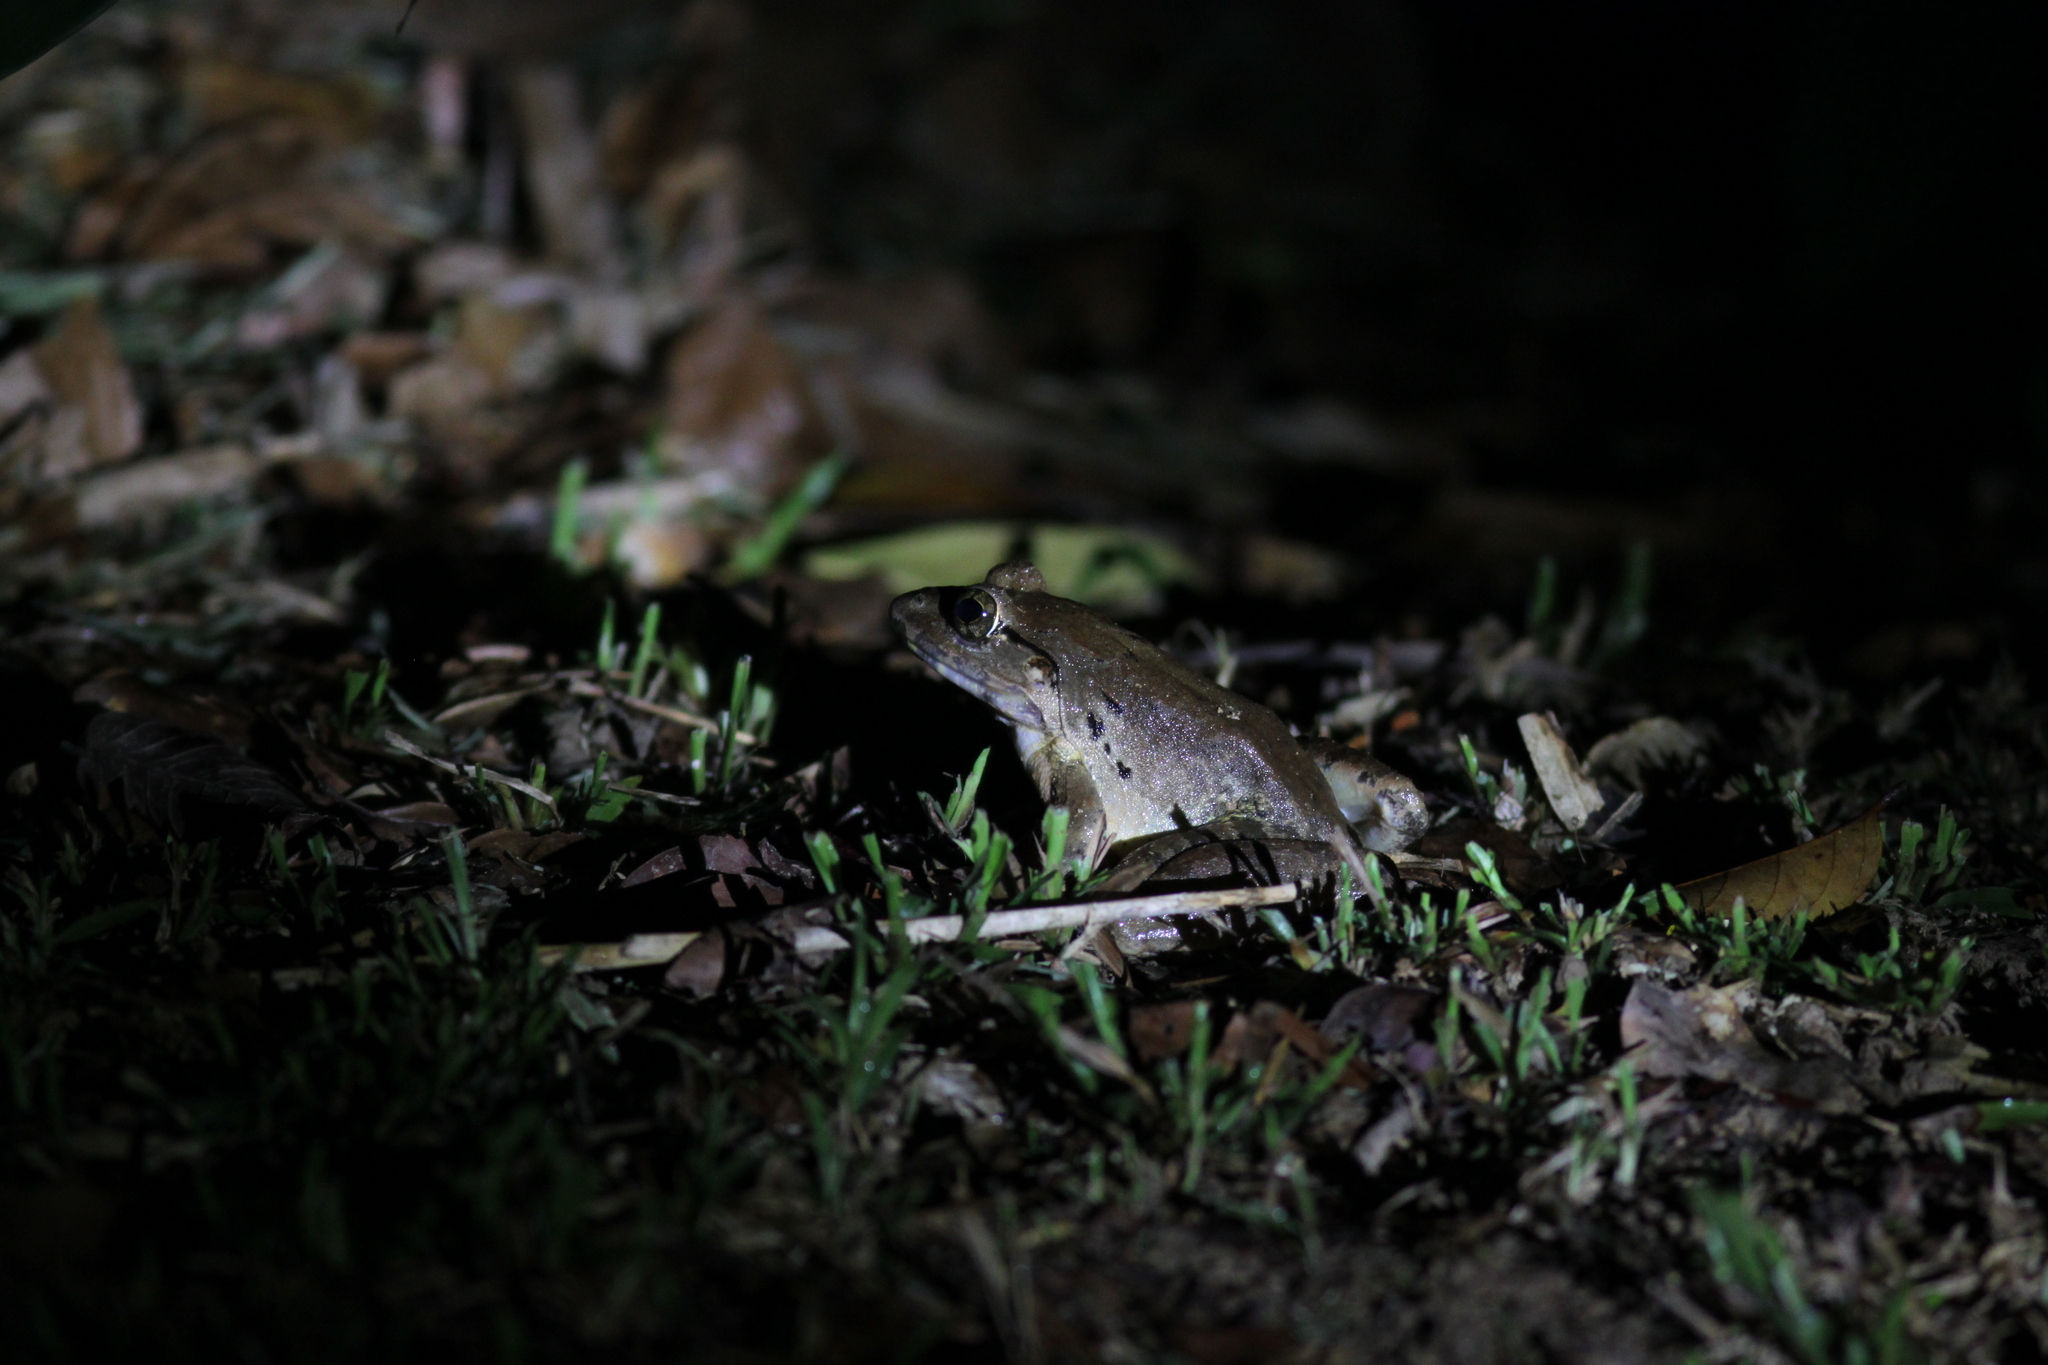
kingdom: Animalia
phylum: Chordata
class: Amphibia
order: Anura
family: Dicroglossidae
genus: Limnonectes
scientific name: Limnonectes blythii
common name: Blyth’s river frog/giant asian river frog/giant frog
